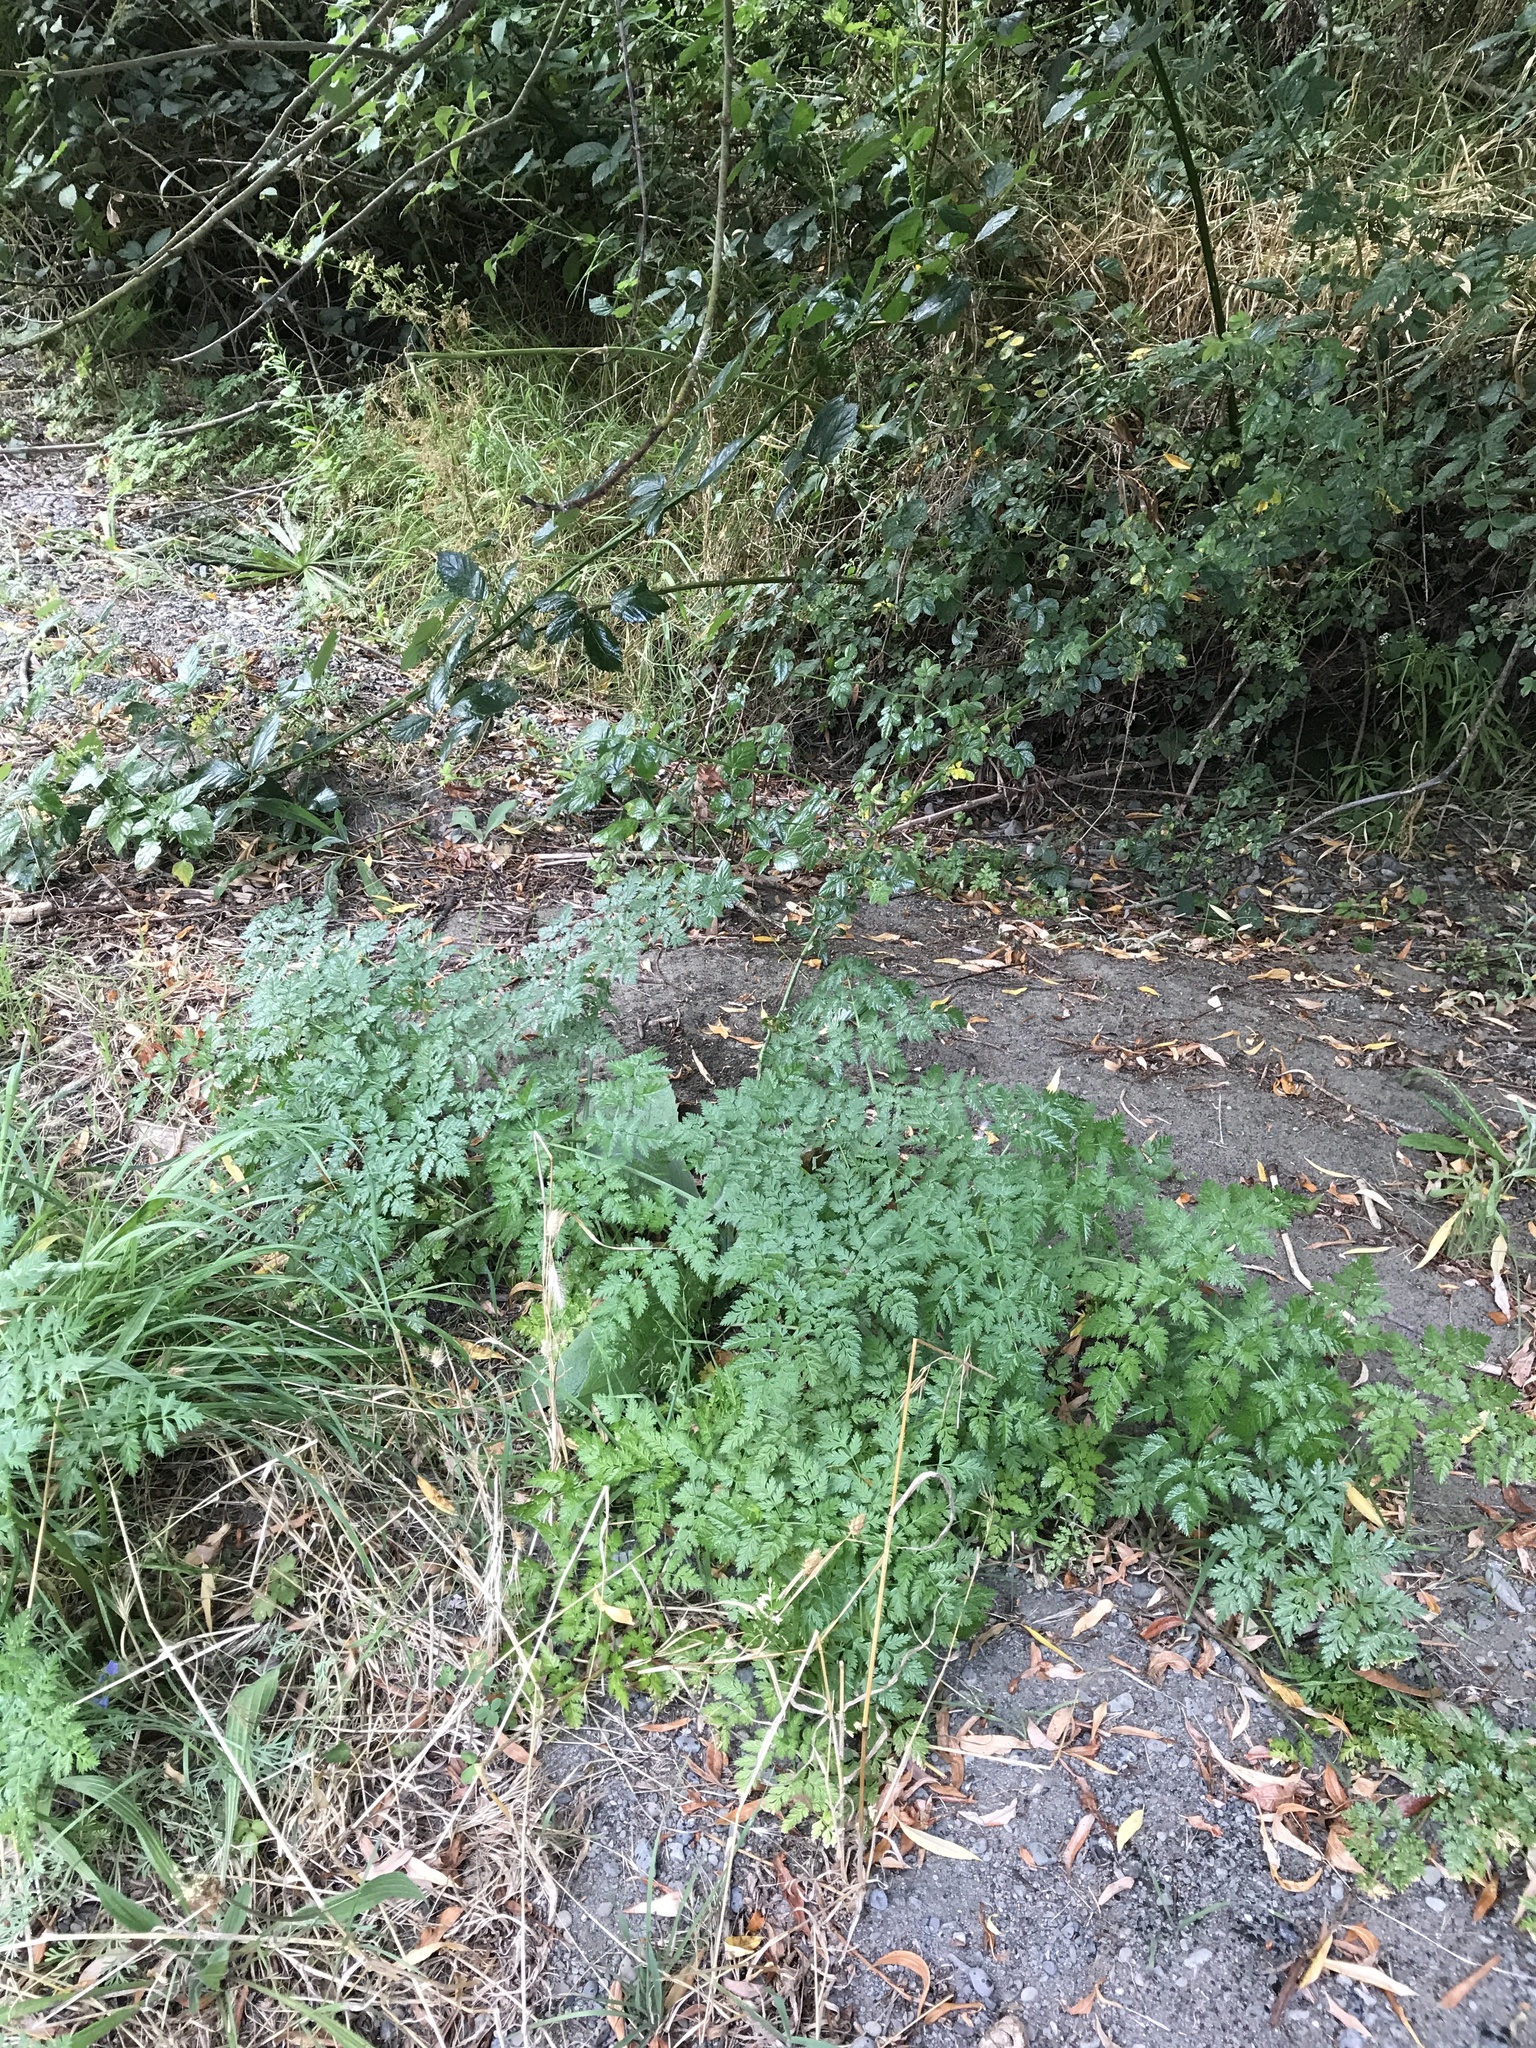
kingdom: Plantae
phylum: Tracheophyta
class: Magnoliopsida
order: Apiales
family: Apiaceae
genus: Conium
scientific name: Conium maculatum
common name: Hemlock
